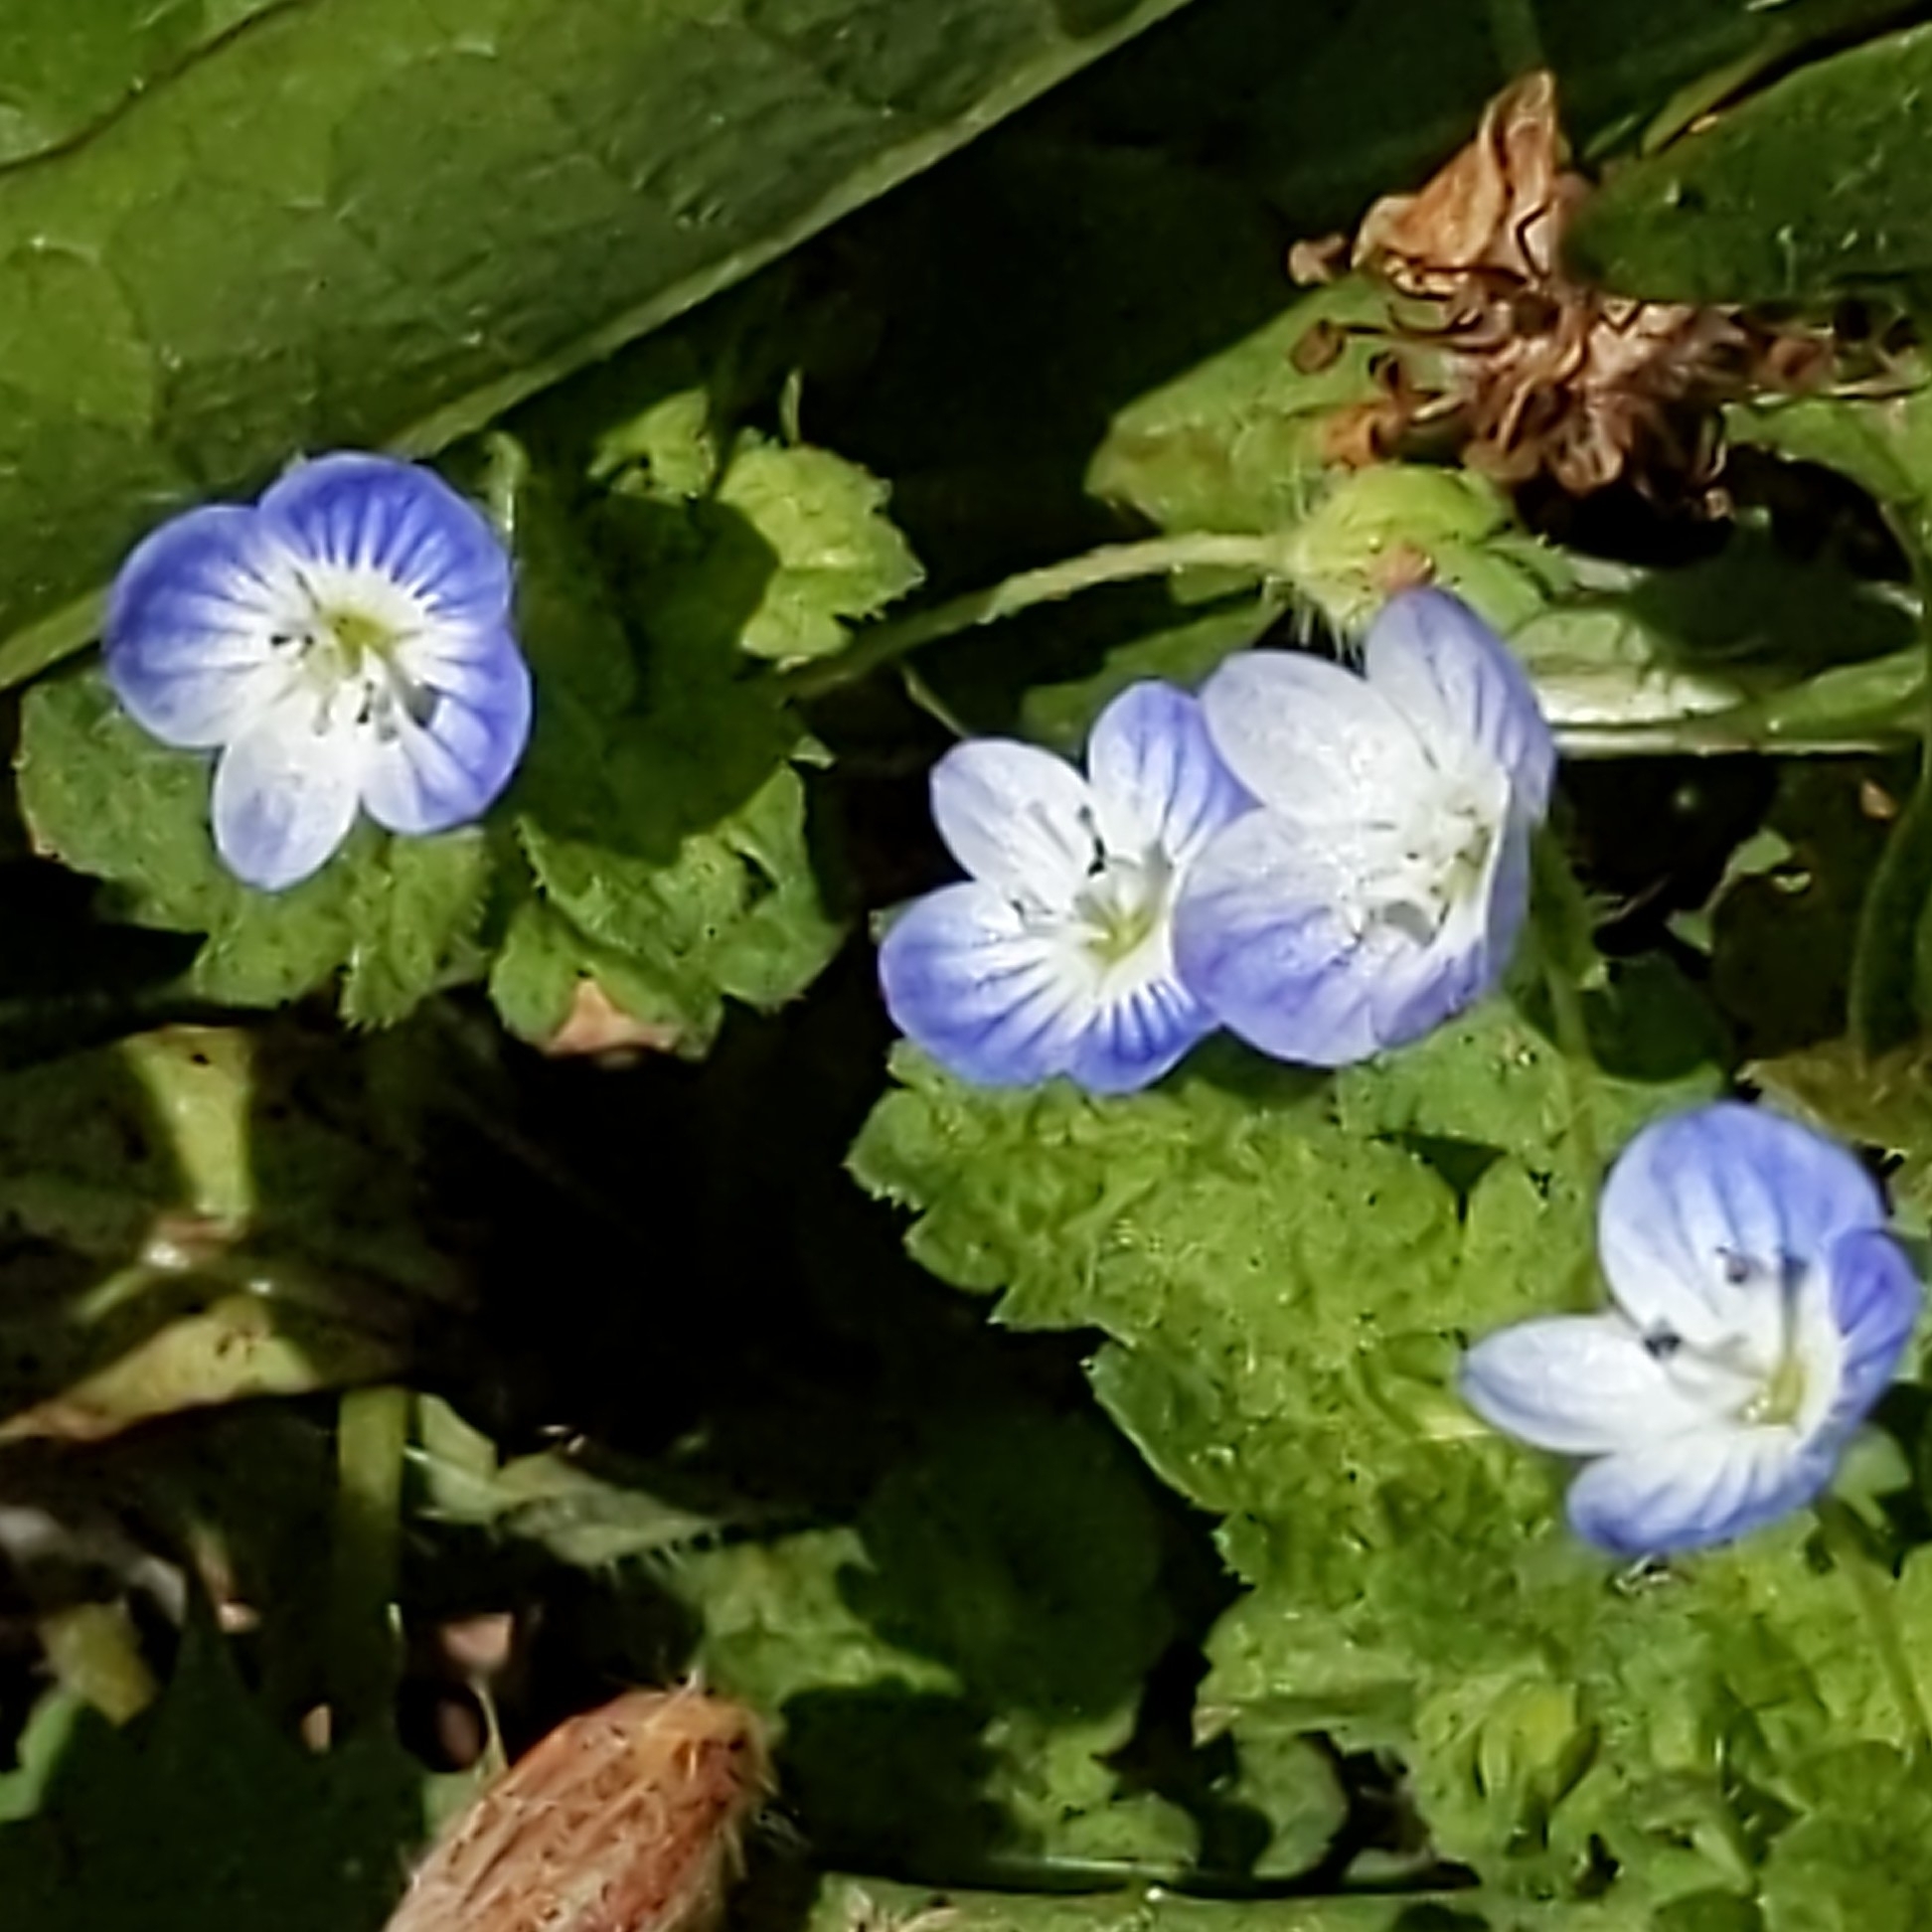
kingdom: Plantae
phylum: Tracheophyta
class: Magnoliopsida
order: Lamiales
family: Plantaginaceae
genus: Veronica
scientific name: Veronica persica
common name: Common field-speedwell
